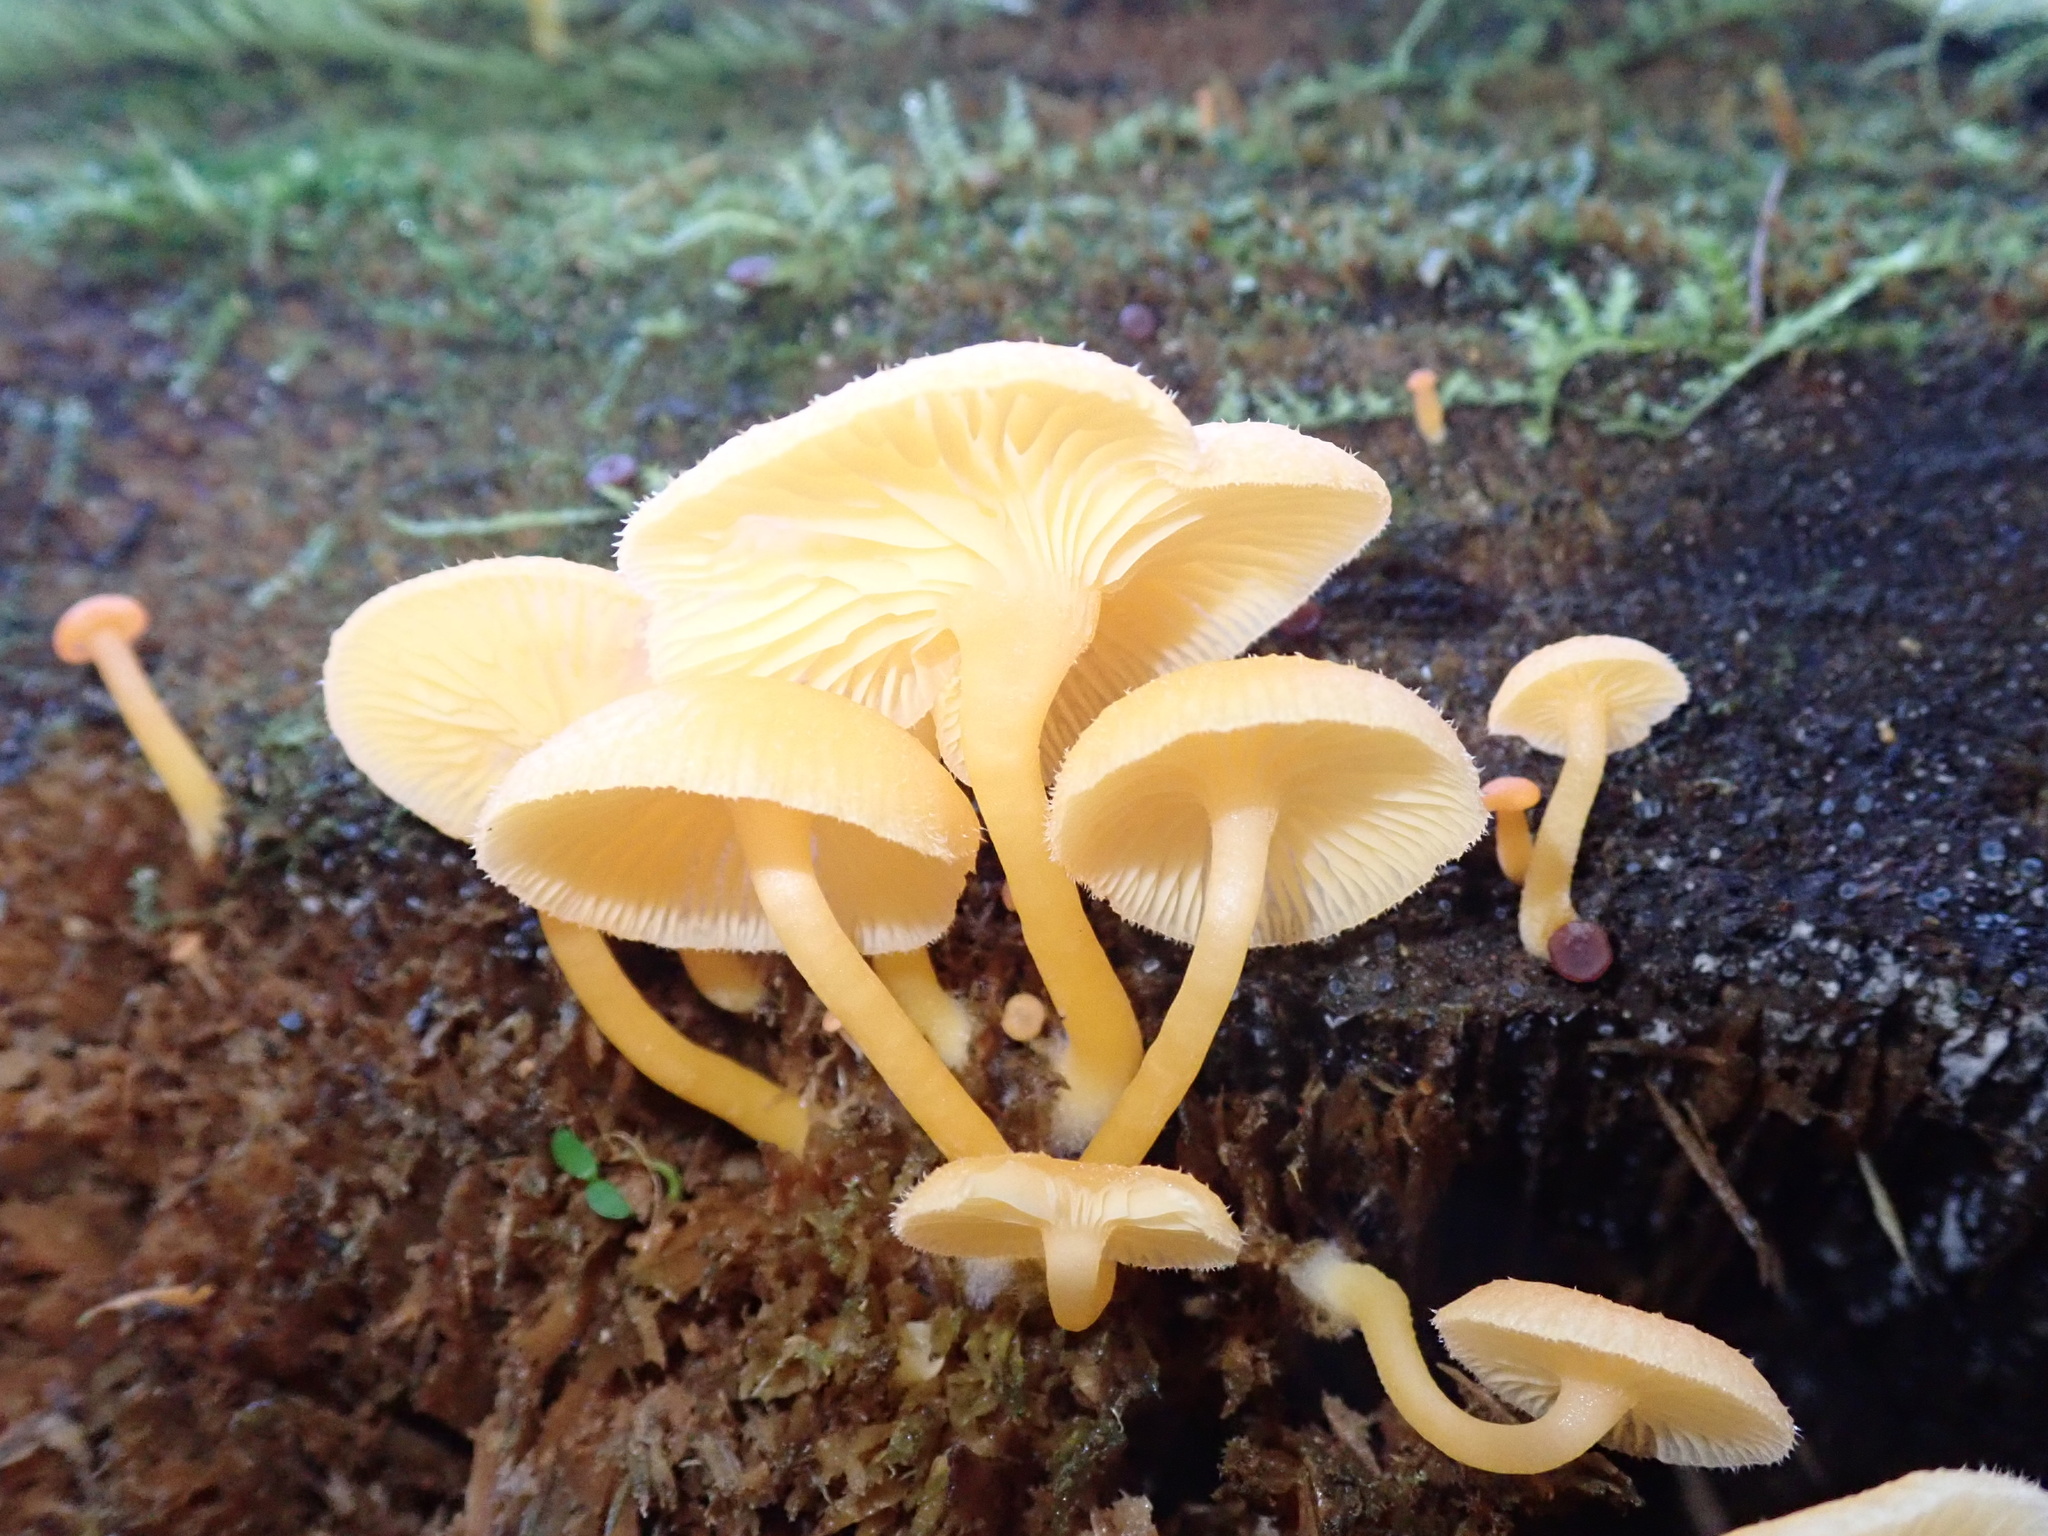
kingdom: Fungi
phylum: Basidiomycota
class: Agaricomycetes
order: Agaricales
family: Hygrophoraceae
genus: Chrysomphalina
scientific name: Chrysomphalina aurantiaca
